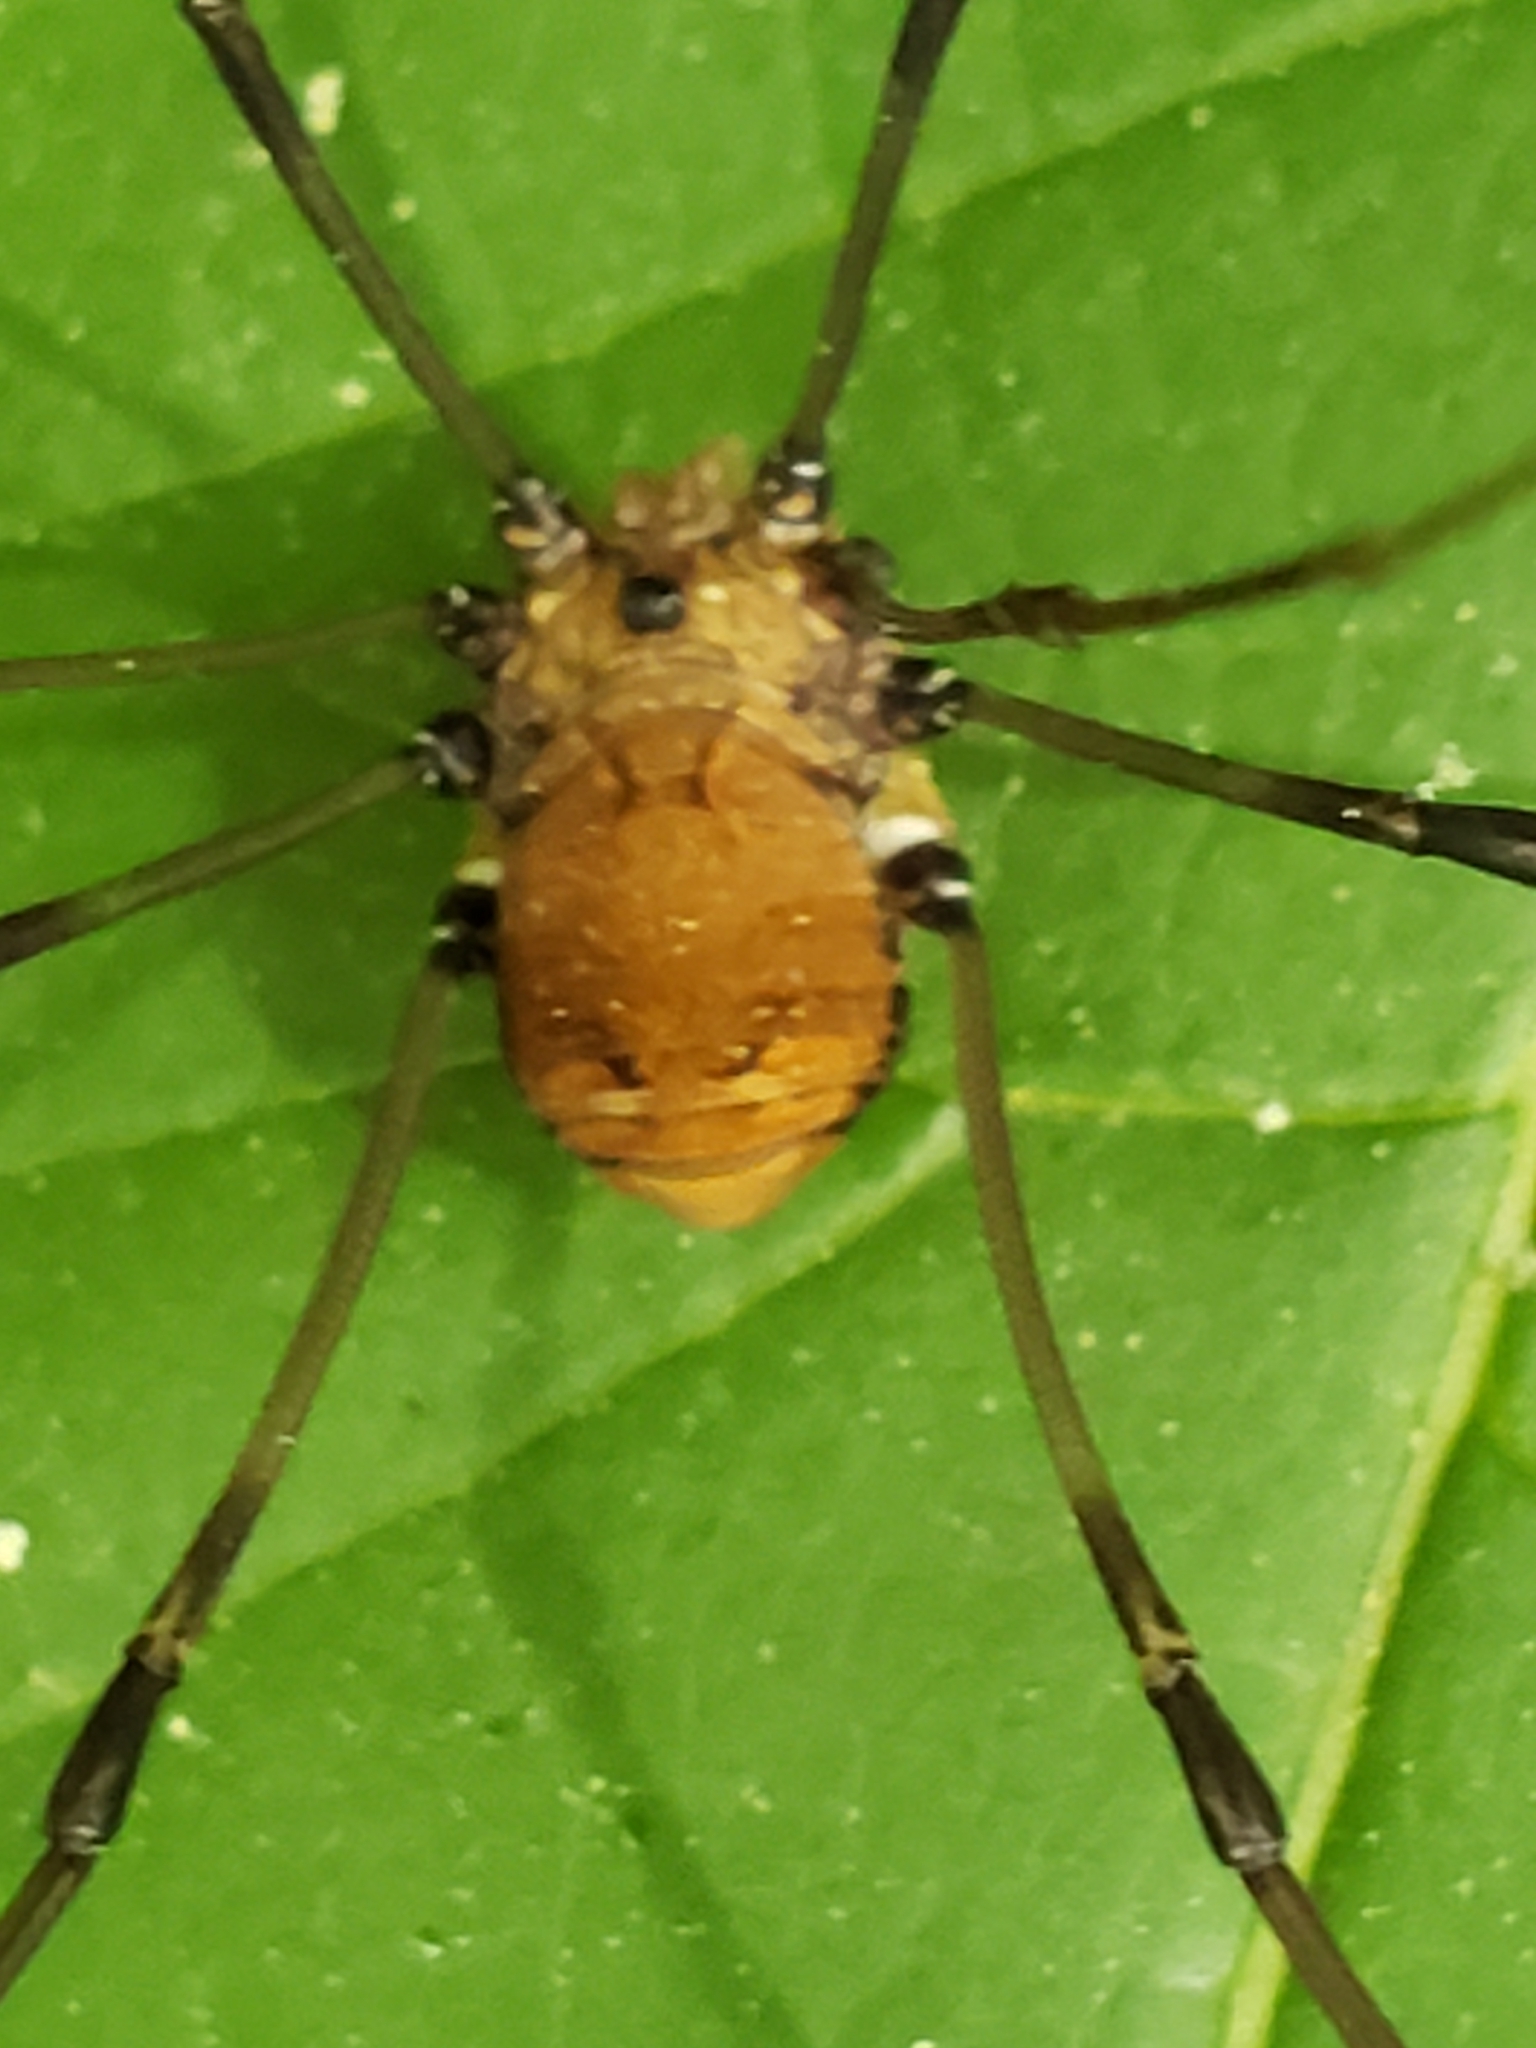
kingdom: Animalia
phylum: Arthropoda
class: Arachnida
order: Opiliones
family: Sclerosomatidae
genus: Leiobunum
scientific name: Leiobunum verrucosum
